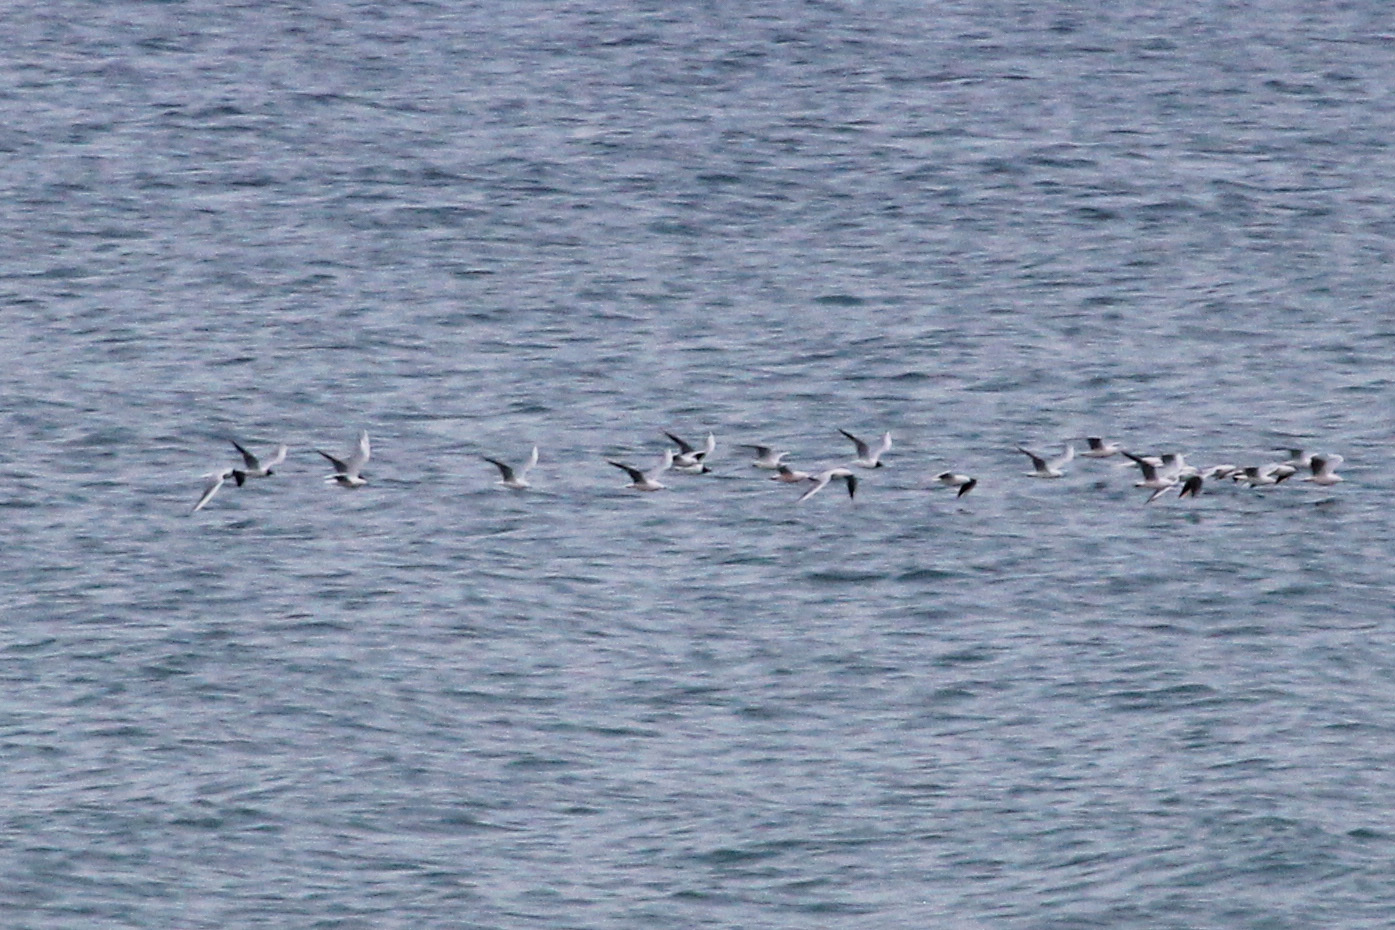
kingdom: Animalia
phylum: Chordata
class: Aves
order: Charadriiformes
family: Laridae
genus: Chroicocephalus
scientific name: Chroicocephalus genei
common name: Slender-billed gull
